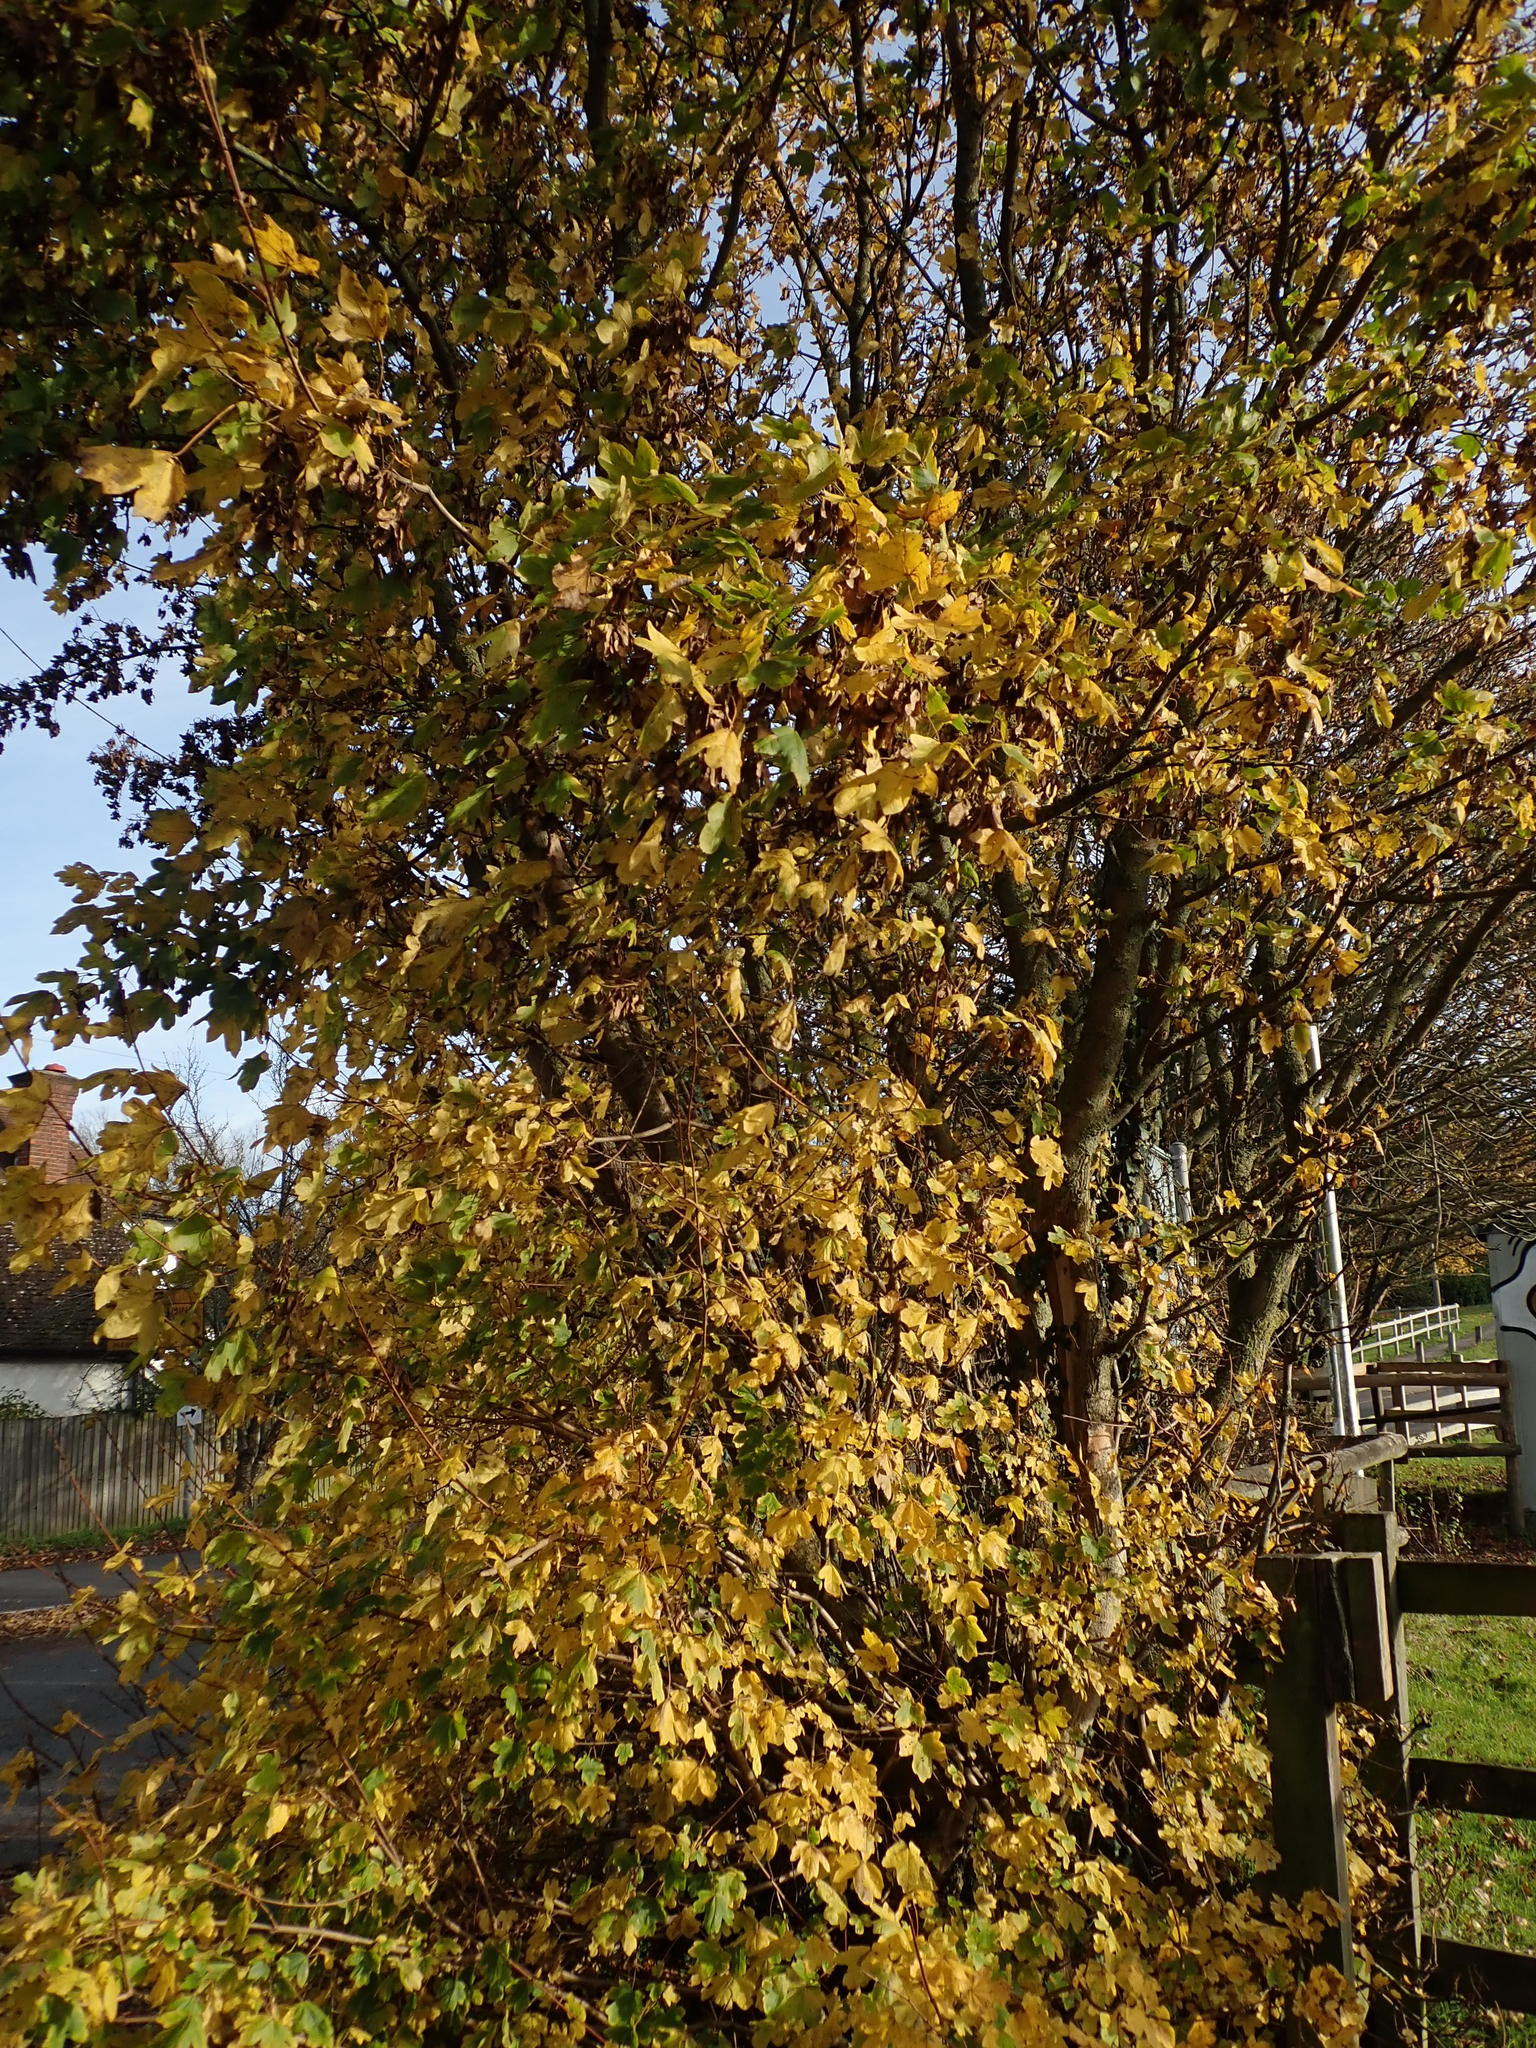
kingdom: Plantae
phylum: Tracheophyta
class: Magnoliopsida
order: Sapindales
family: Sapindaceae
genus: Acer
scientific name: Acer campestre
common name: Field maple
